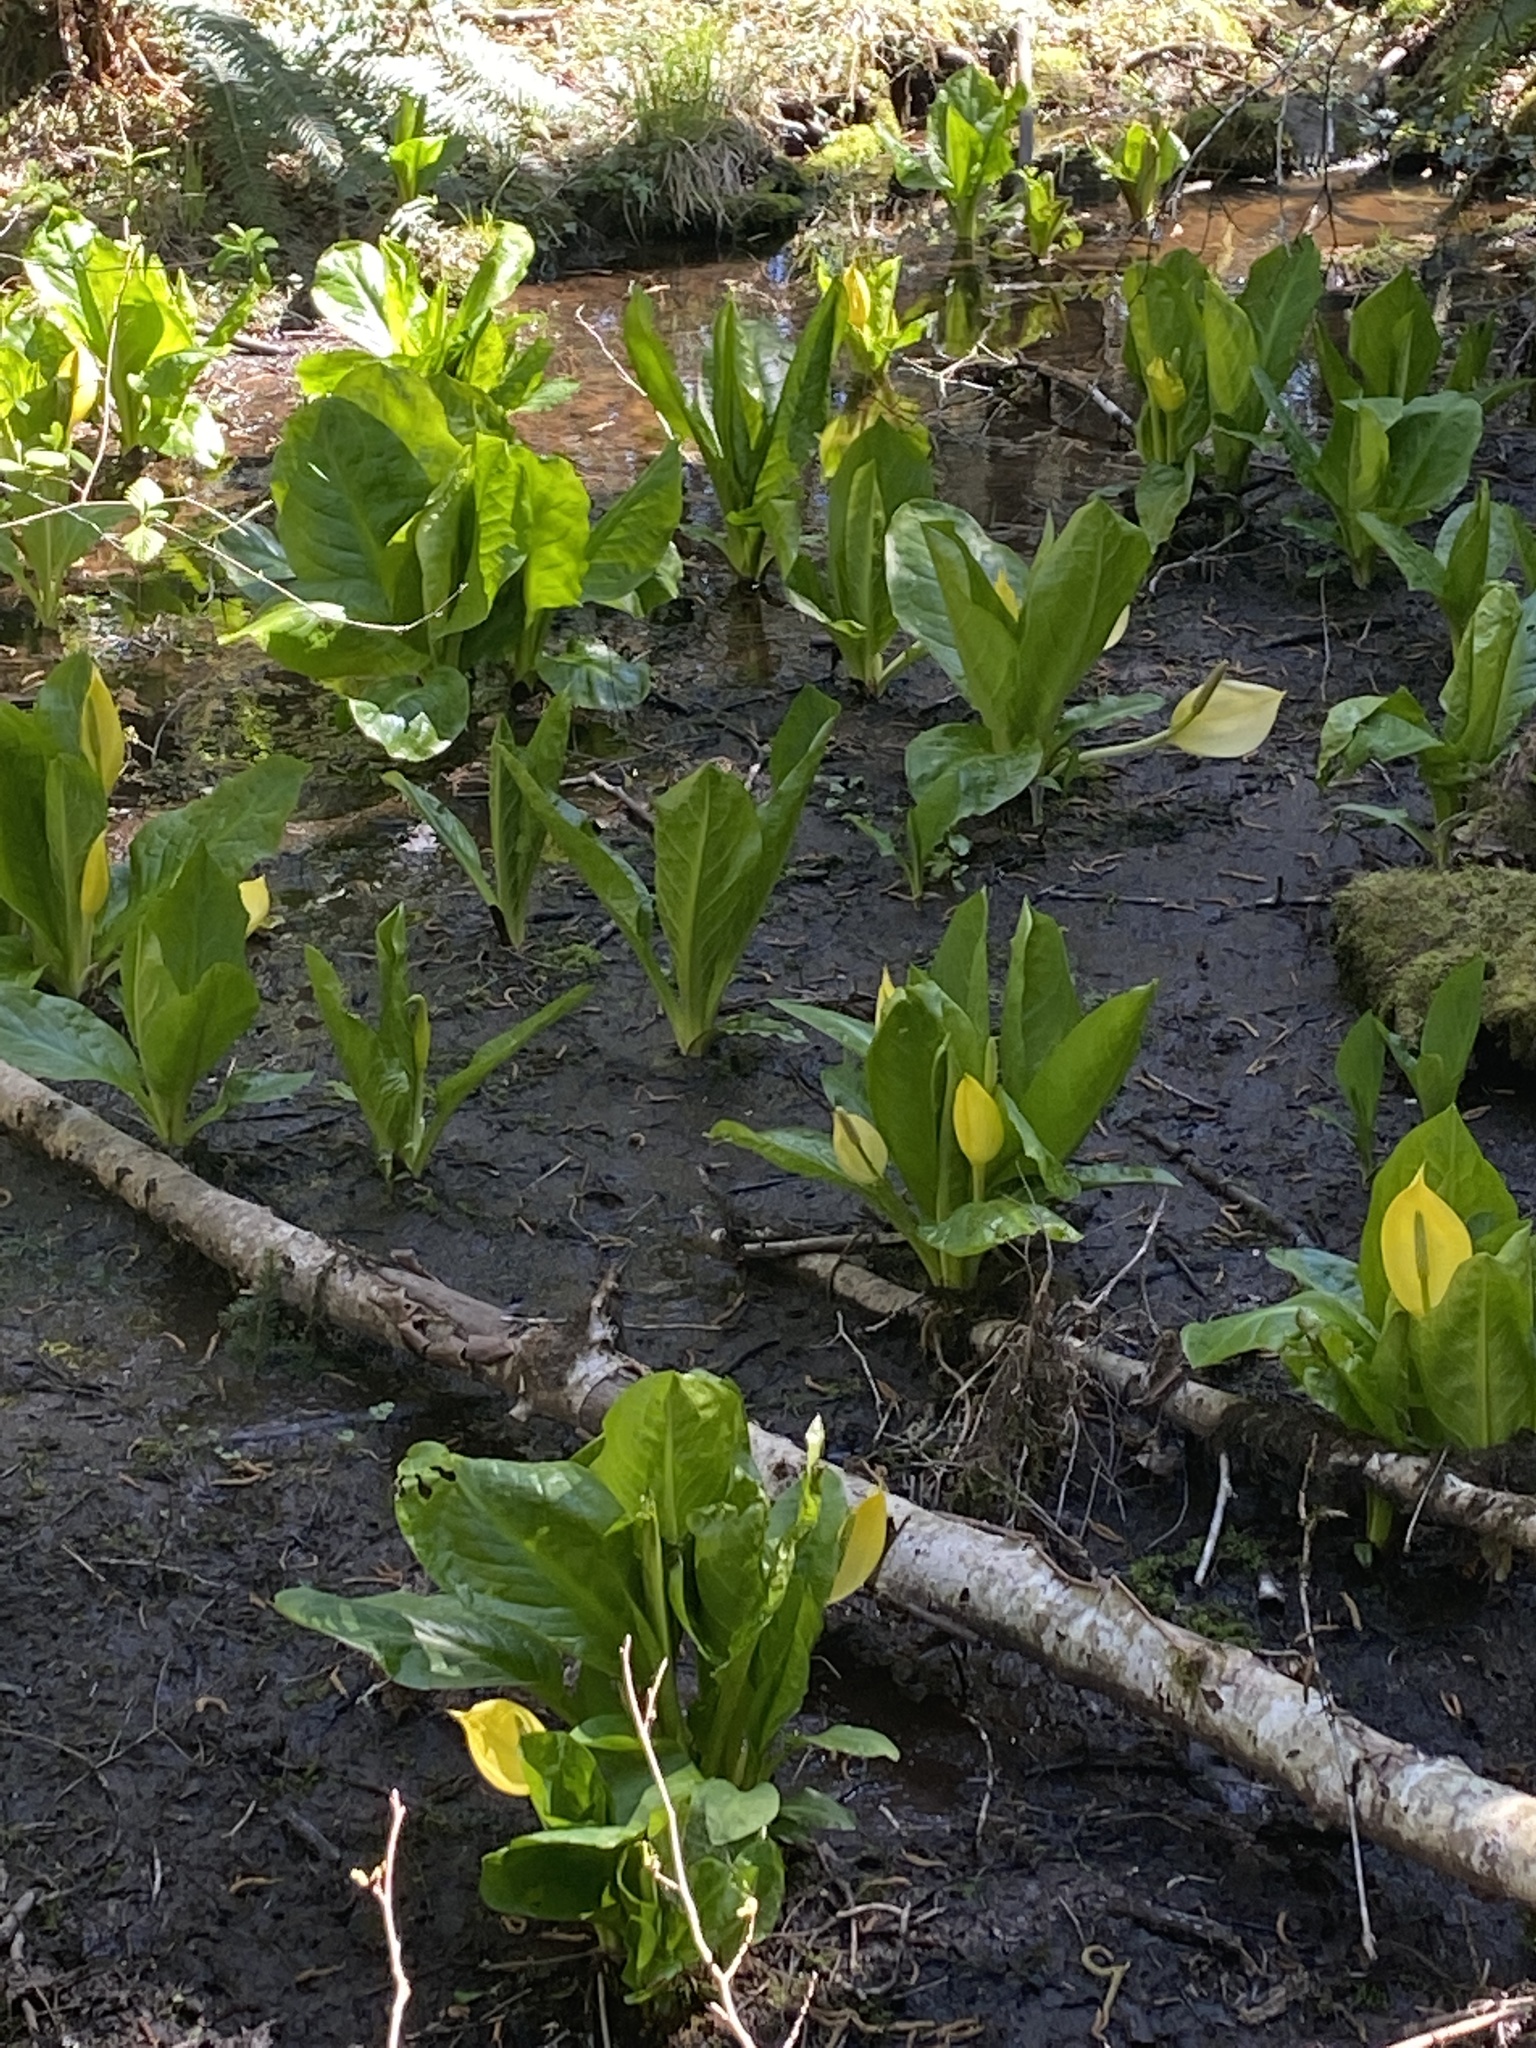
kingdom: Plantae
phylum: Tracheophyta
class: Liliopsida
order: Alismatales
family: Araceae
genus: Lysichiton
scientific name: Lysichiton americanus
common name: American skunk cabbage
